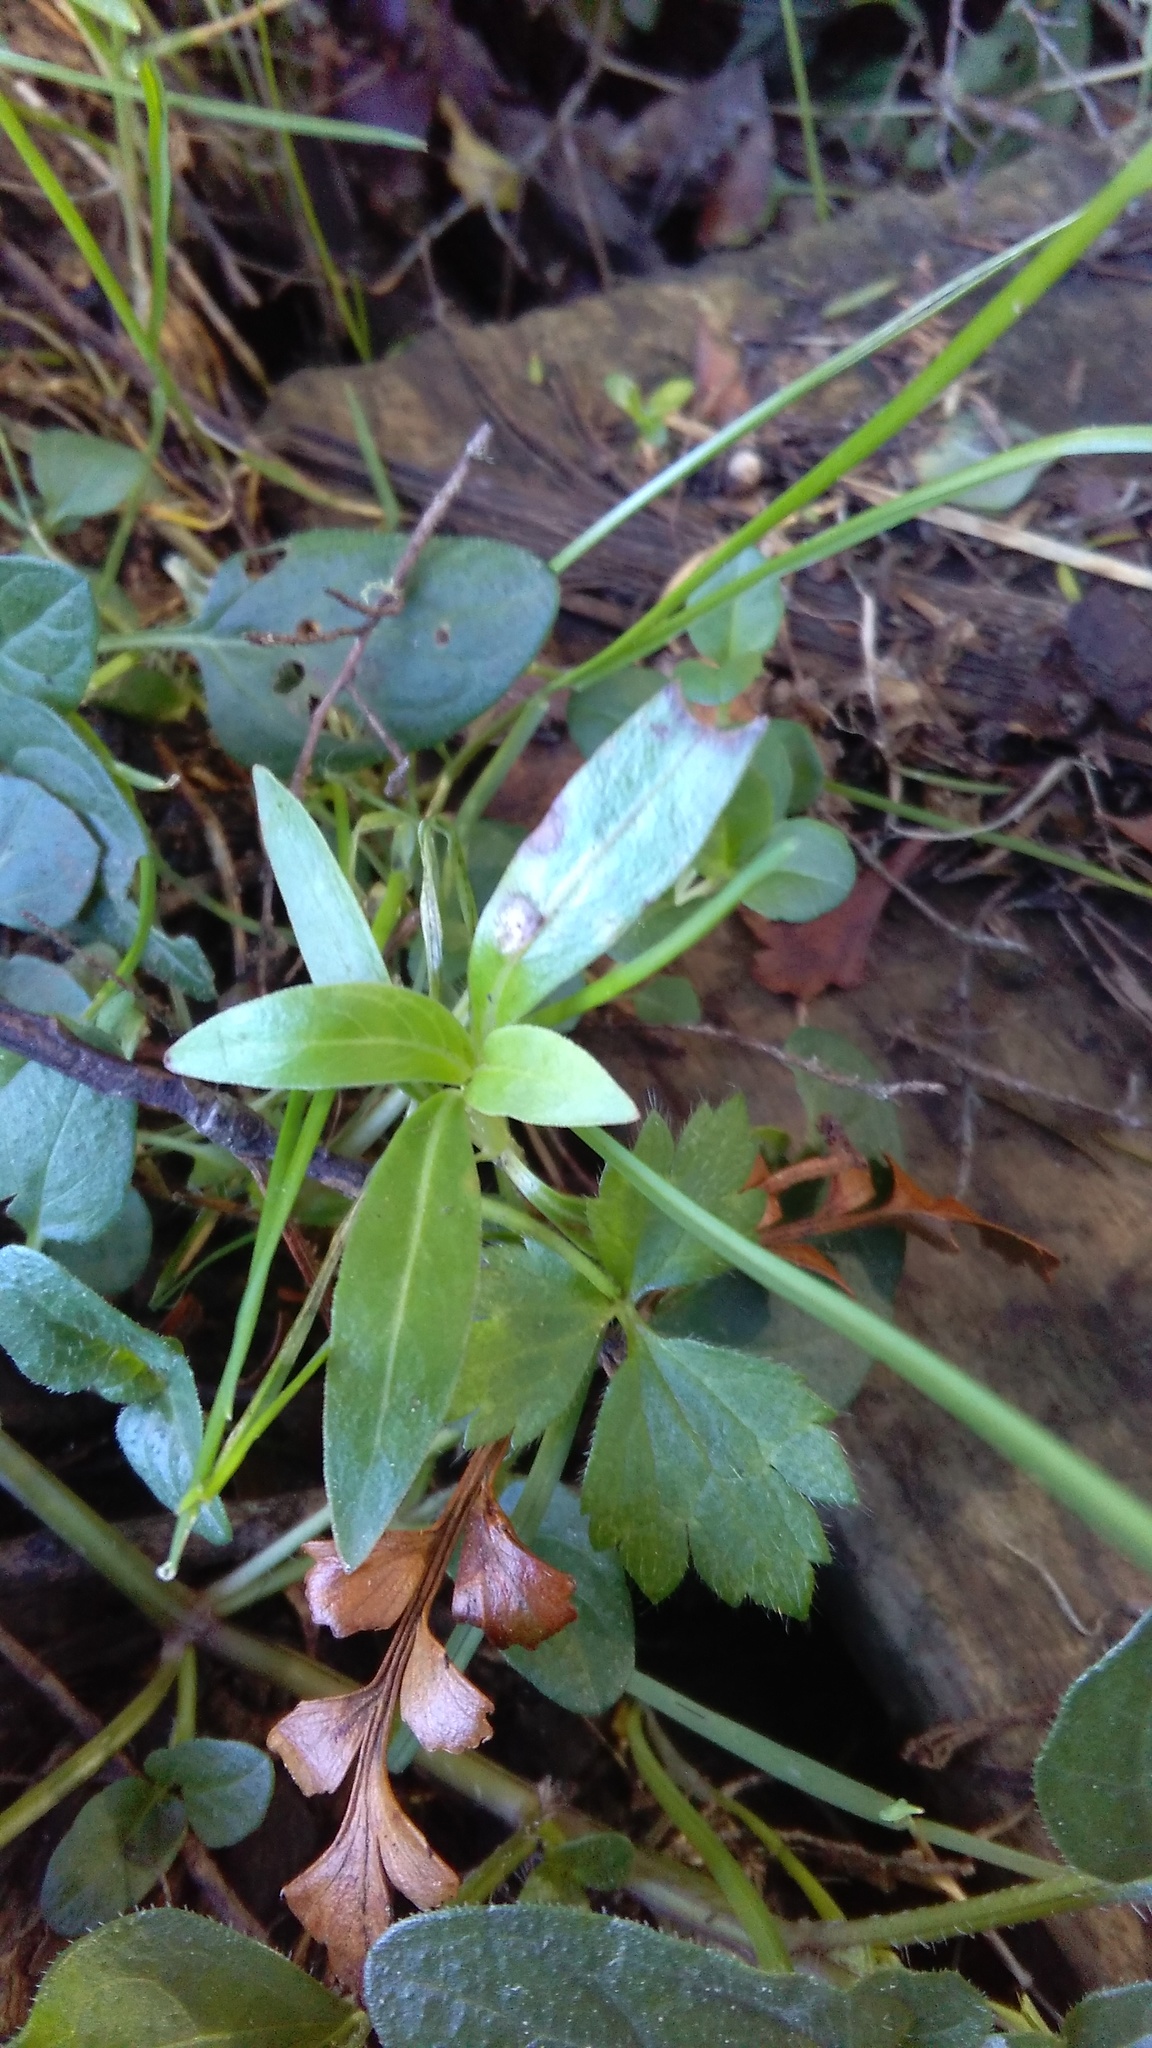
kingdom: Plantae
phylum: Tracheophyta
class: Magnoliopsida
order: Gentianales
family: Rubiaceae
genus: Coprosma
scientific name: Coprosma robusta
